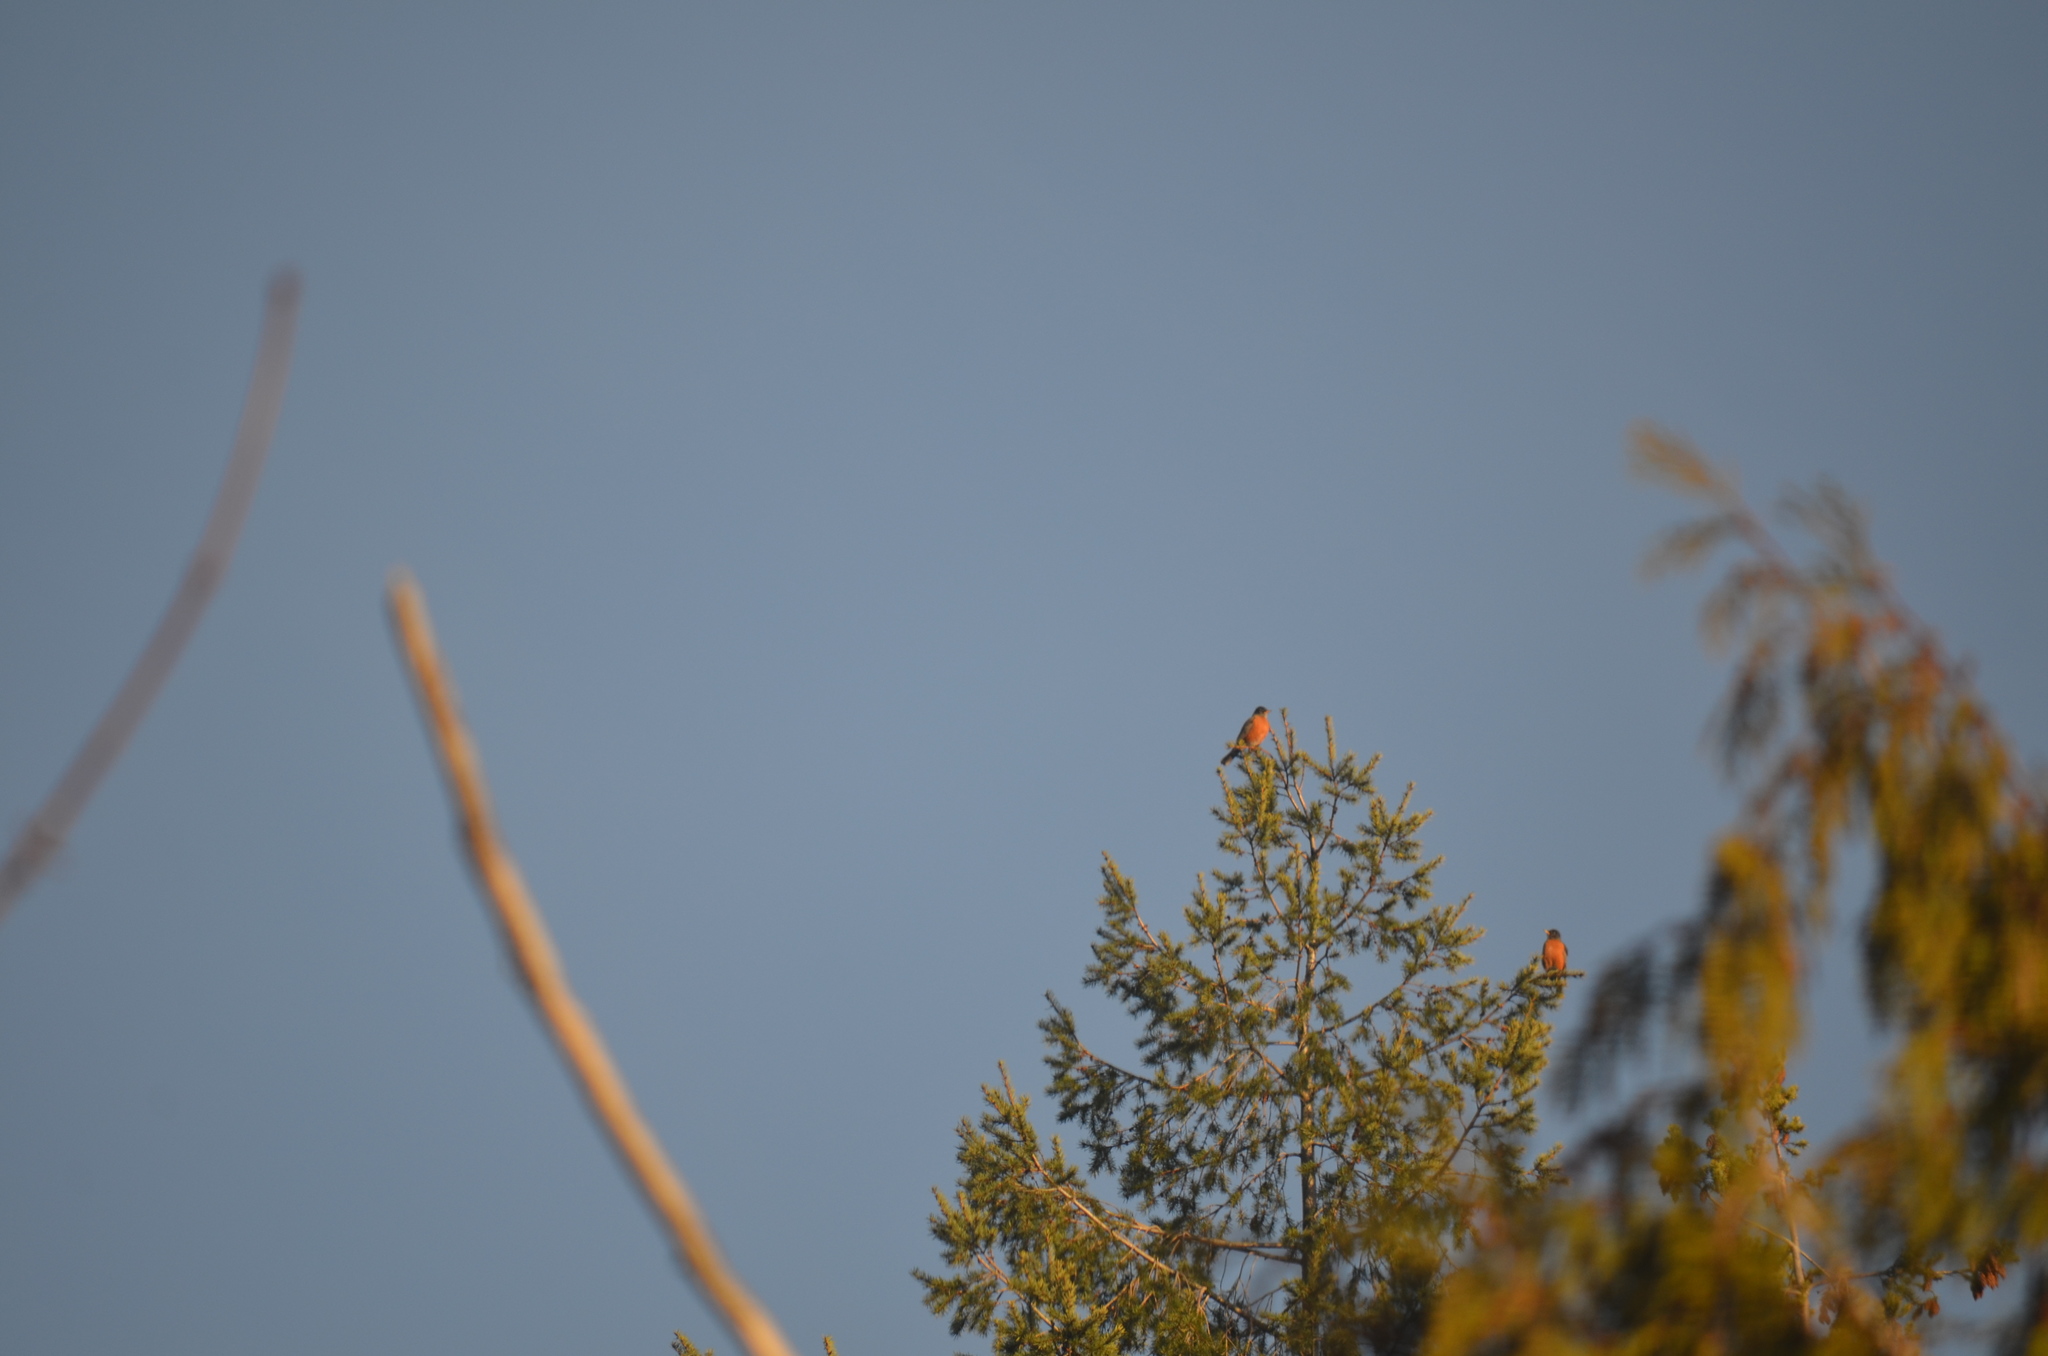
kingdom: Animalia
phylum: Chordata
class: Aves
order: Passeriformes
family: Turdidae
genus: Turdus
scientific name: Turdus migratorius
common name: American robin
